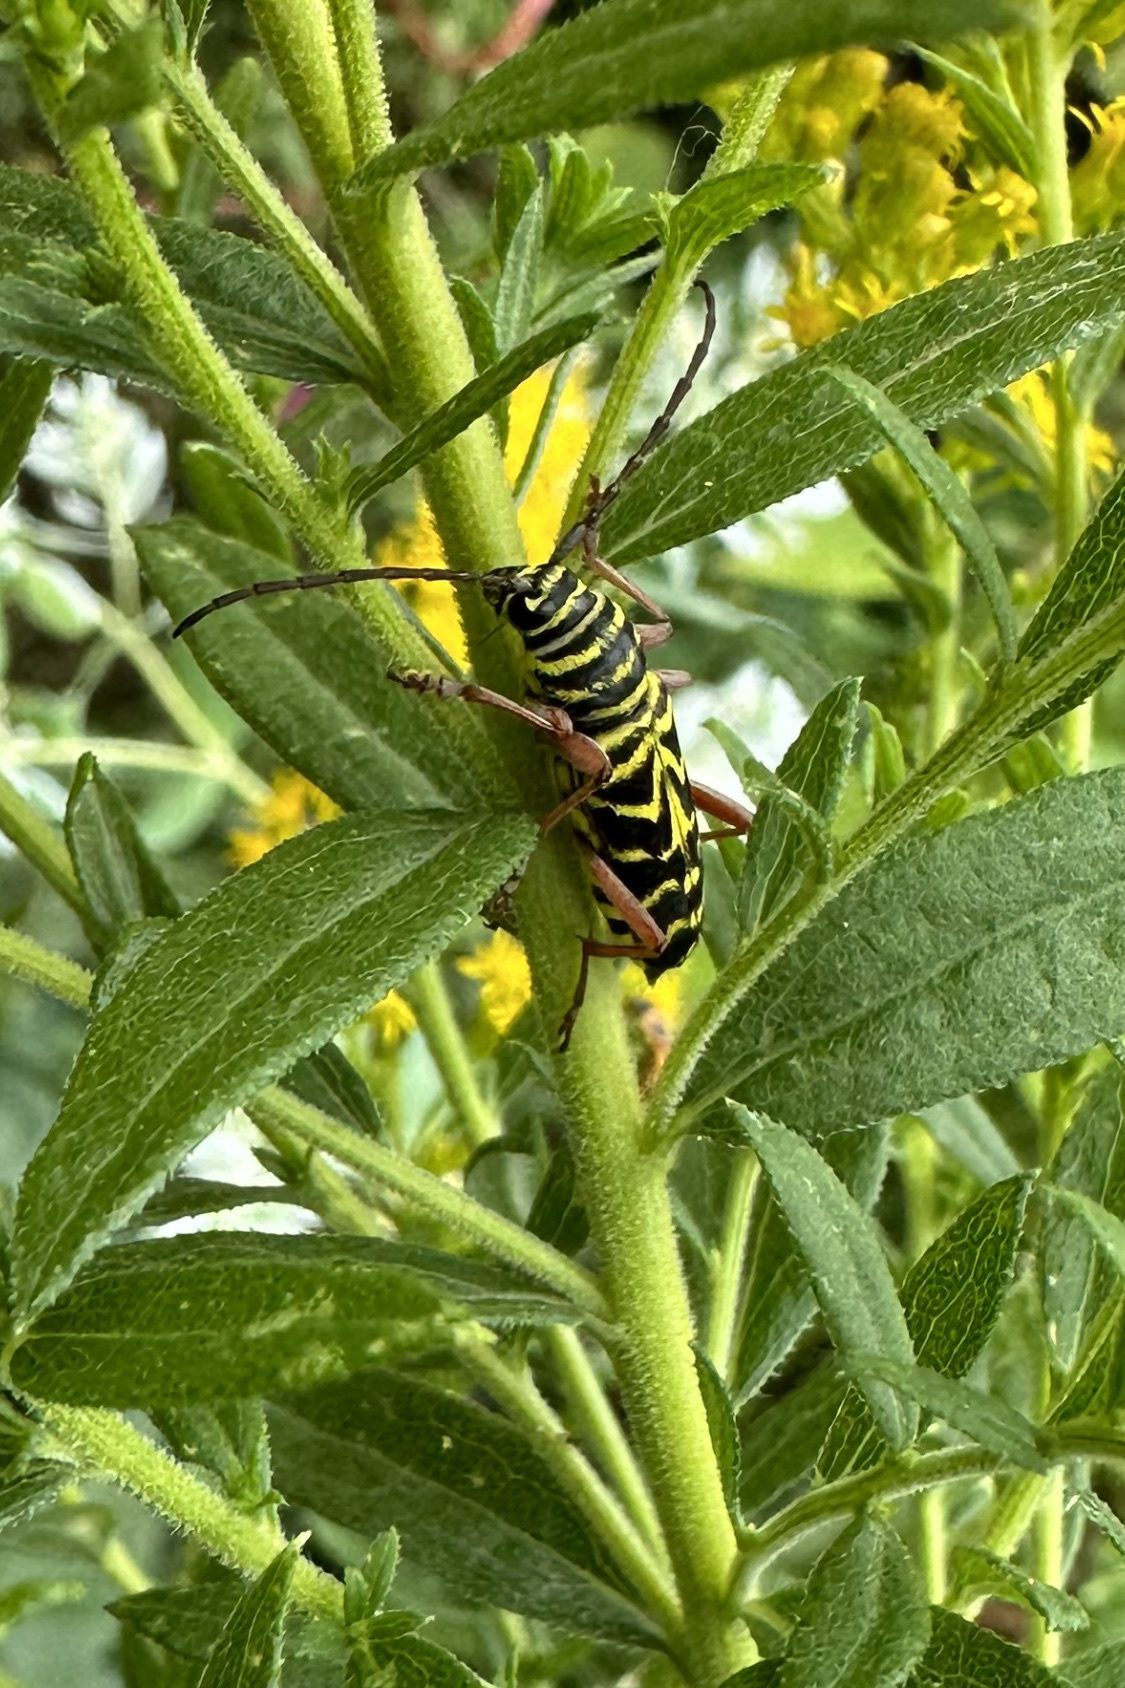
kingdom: Animalia
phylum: Arthropoda
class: Insecta
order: Coleoptera
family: Cerambycidae
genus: Megacyllene
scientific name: Megacyllene robiniae
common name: Locust borer
